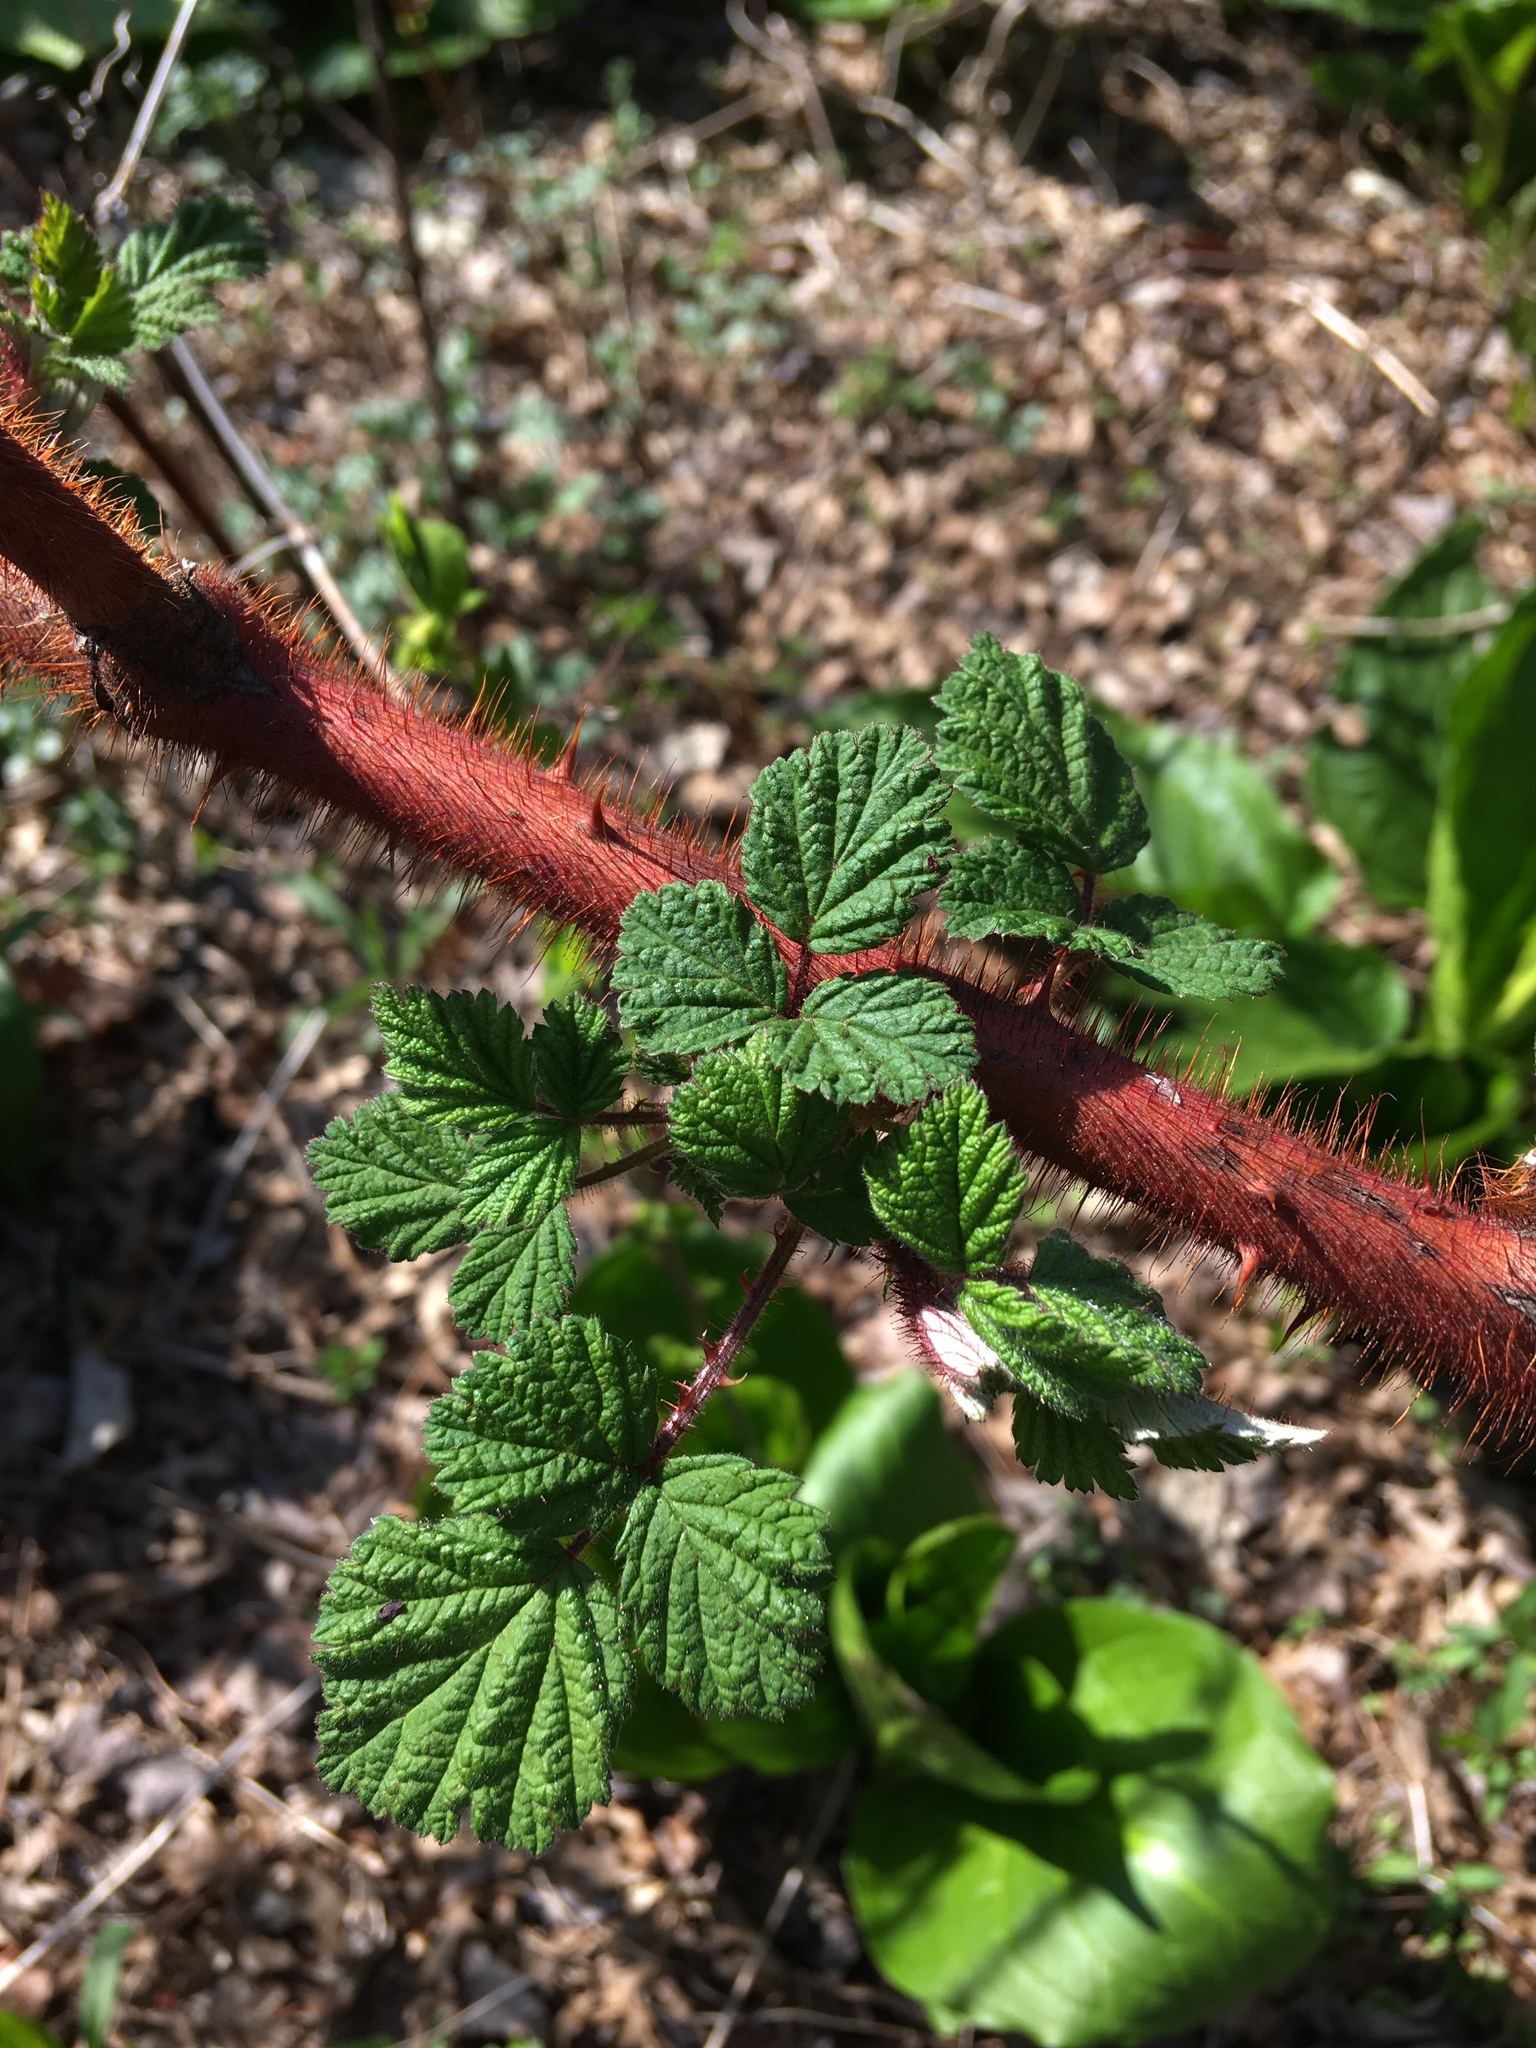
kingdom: Plantae
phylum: Tracheophyta
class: Magnoliopsida
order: Rosales
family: Rosaceae
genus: Rubus
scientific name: Rubus phoenicolasius
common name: Japanese wineberry
